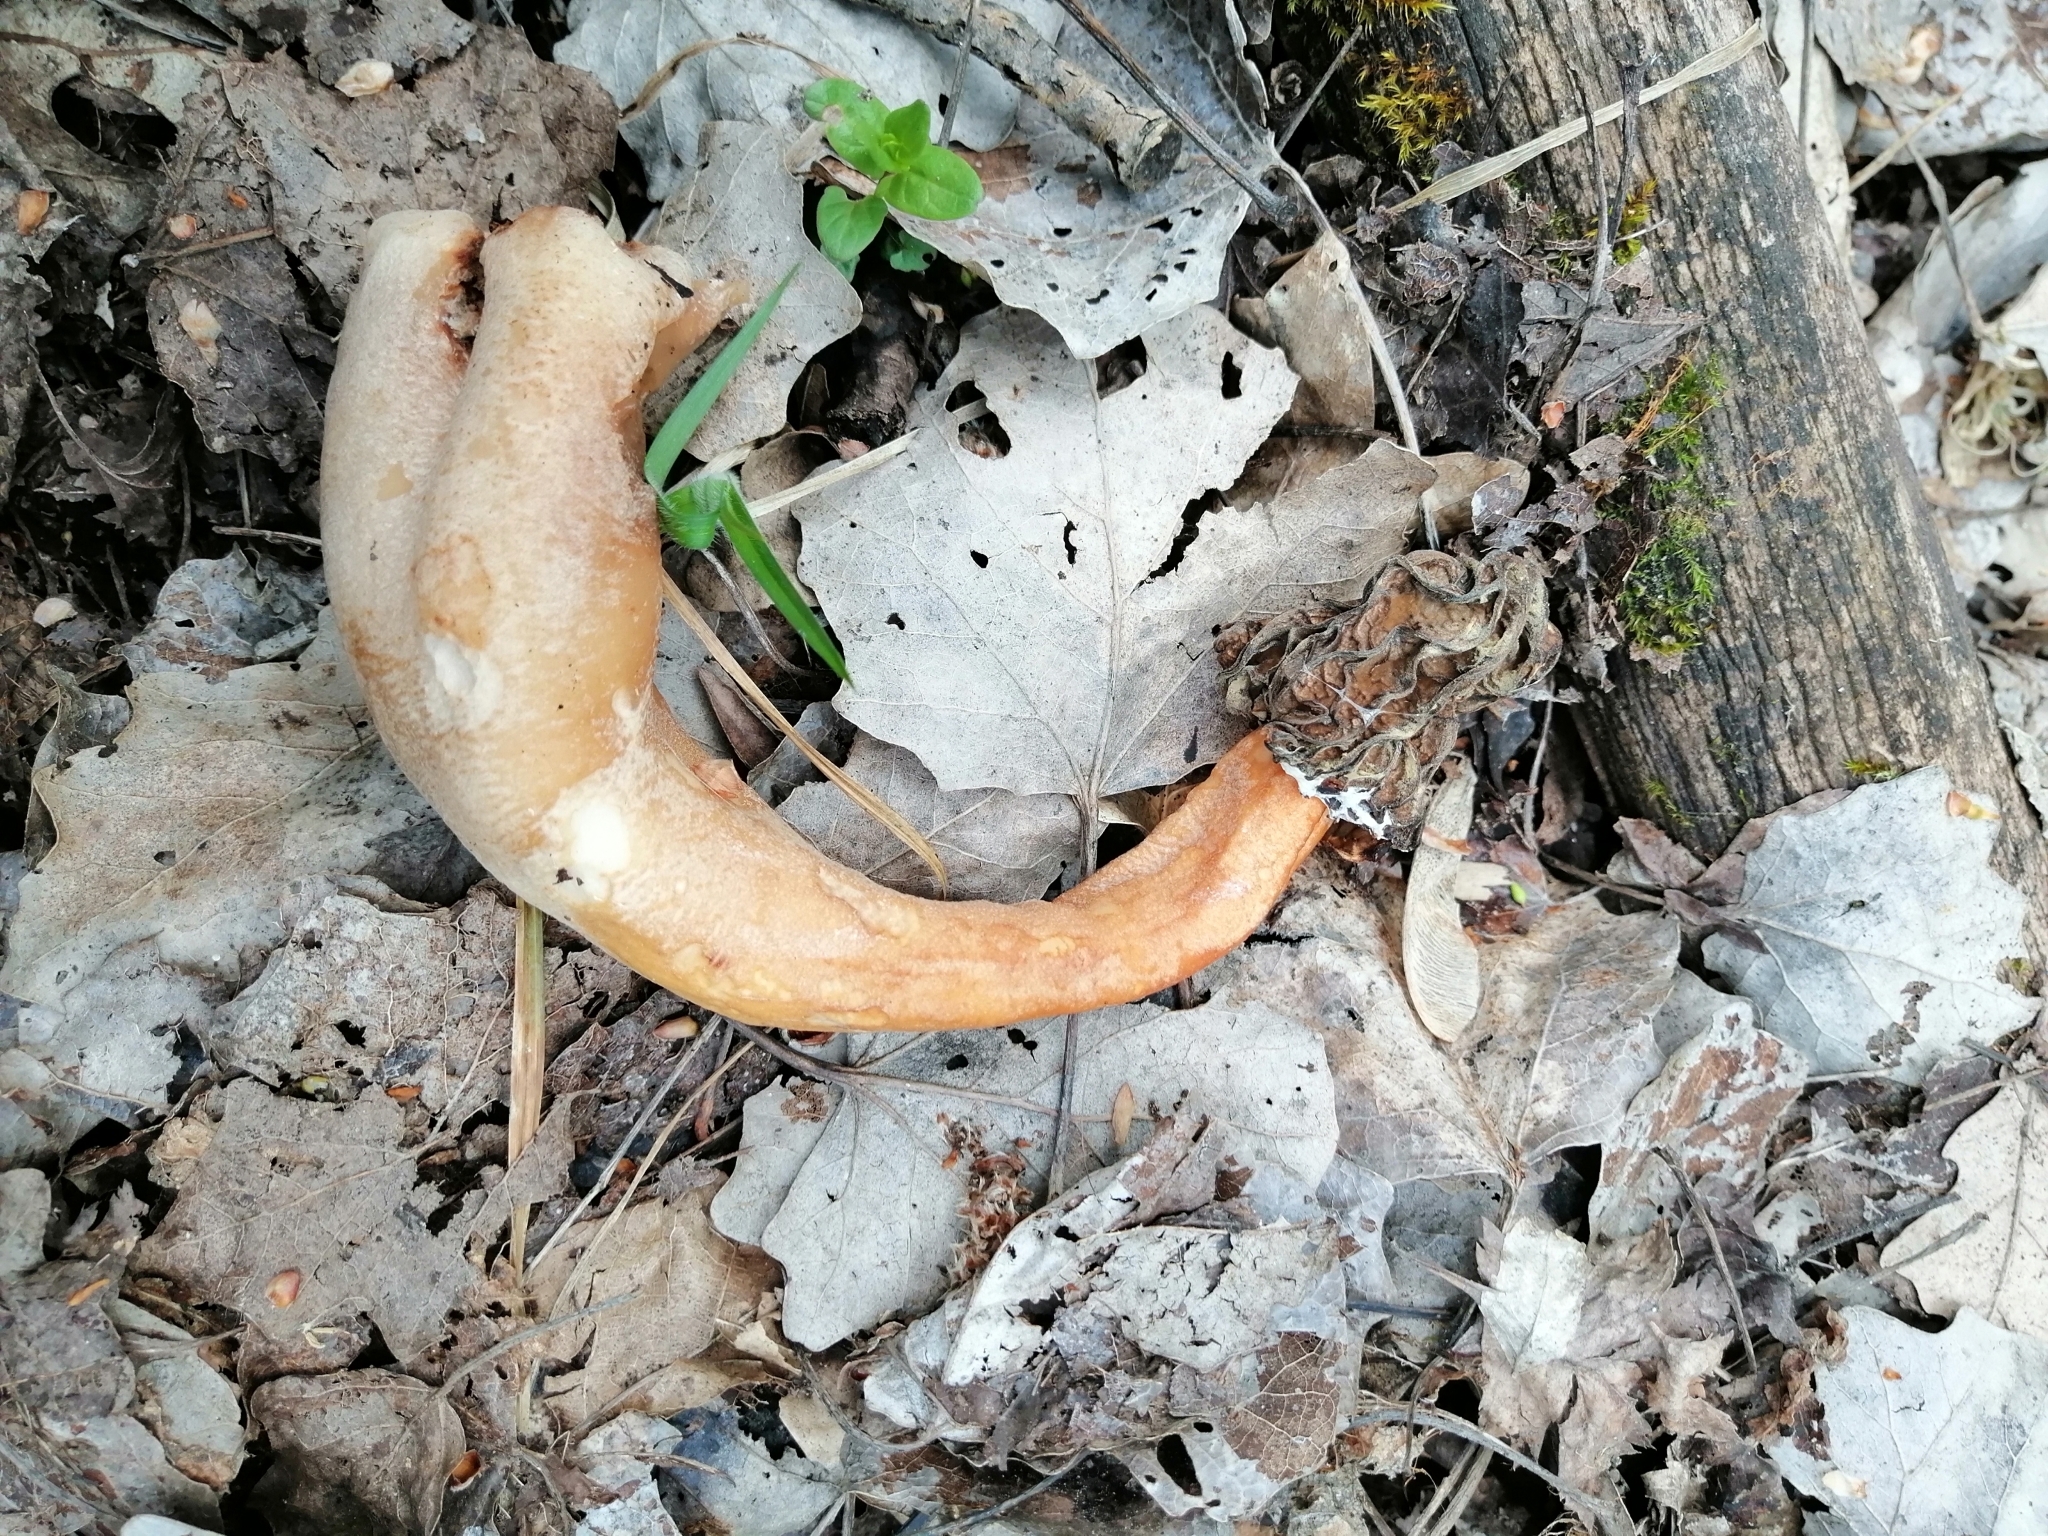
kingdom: Fungi
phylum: Ascomycota
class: Pezizomycetes
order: Pezizales
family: Morchellaceae
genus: Verpa
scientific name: Verpa bohemica
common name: Wrinkled thimble morel
